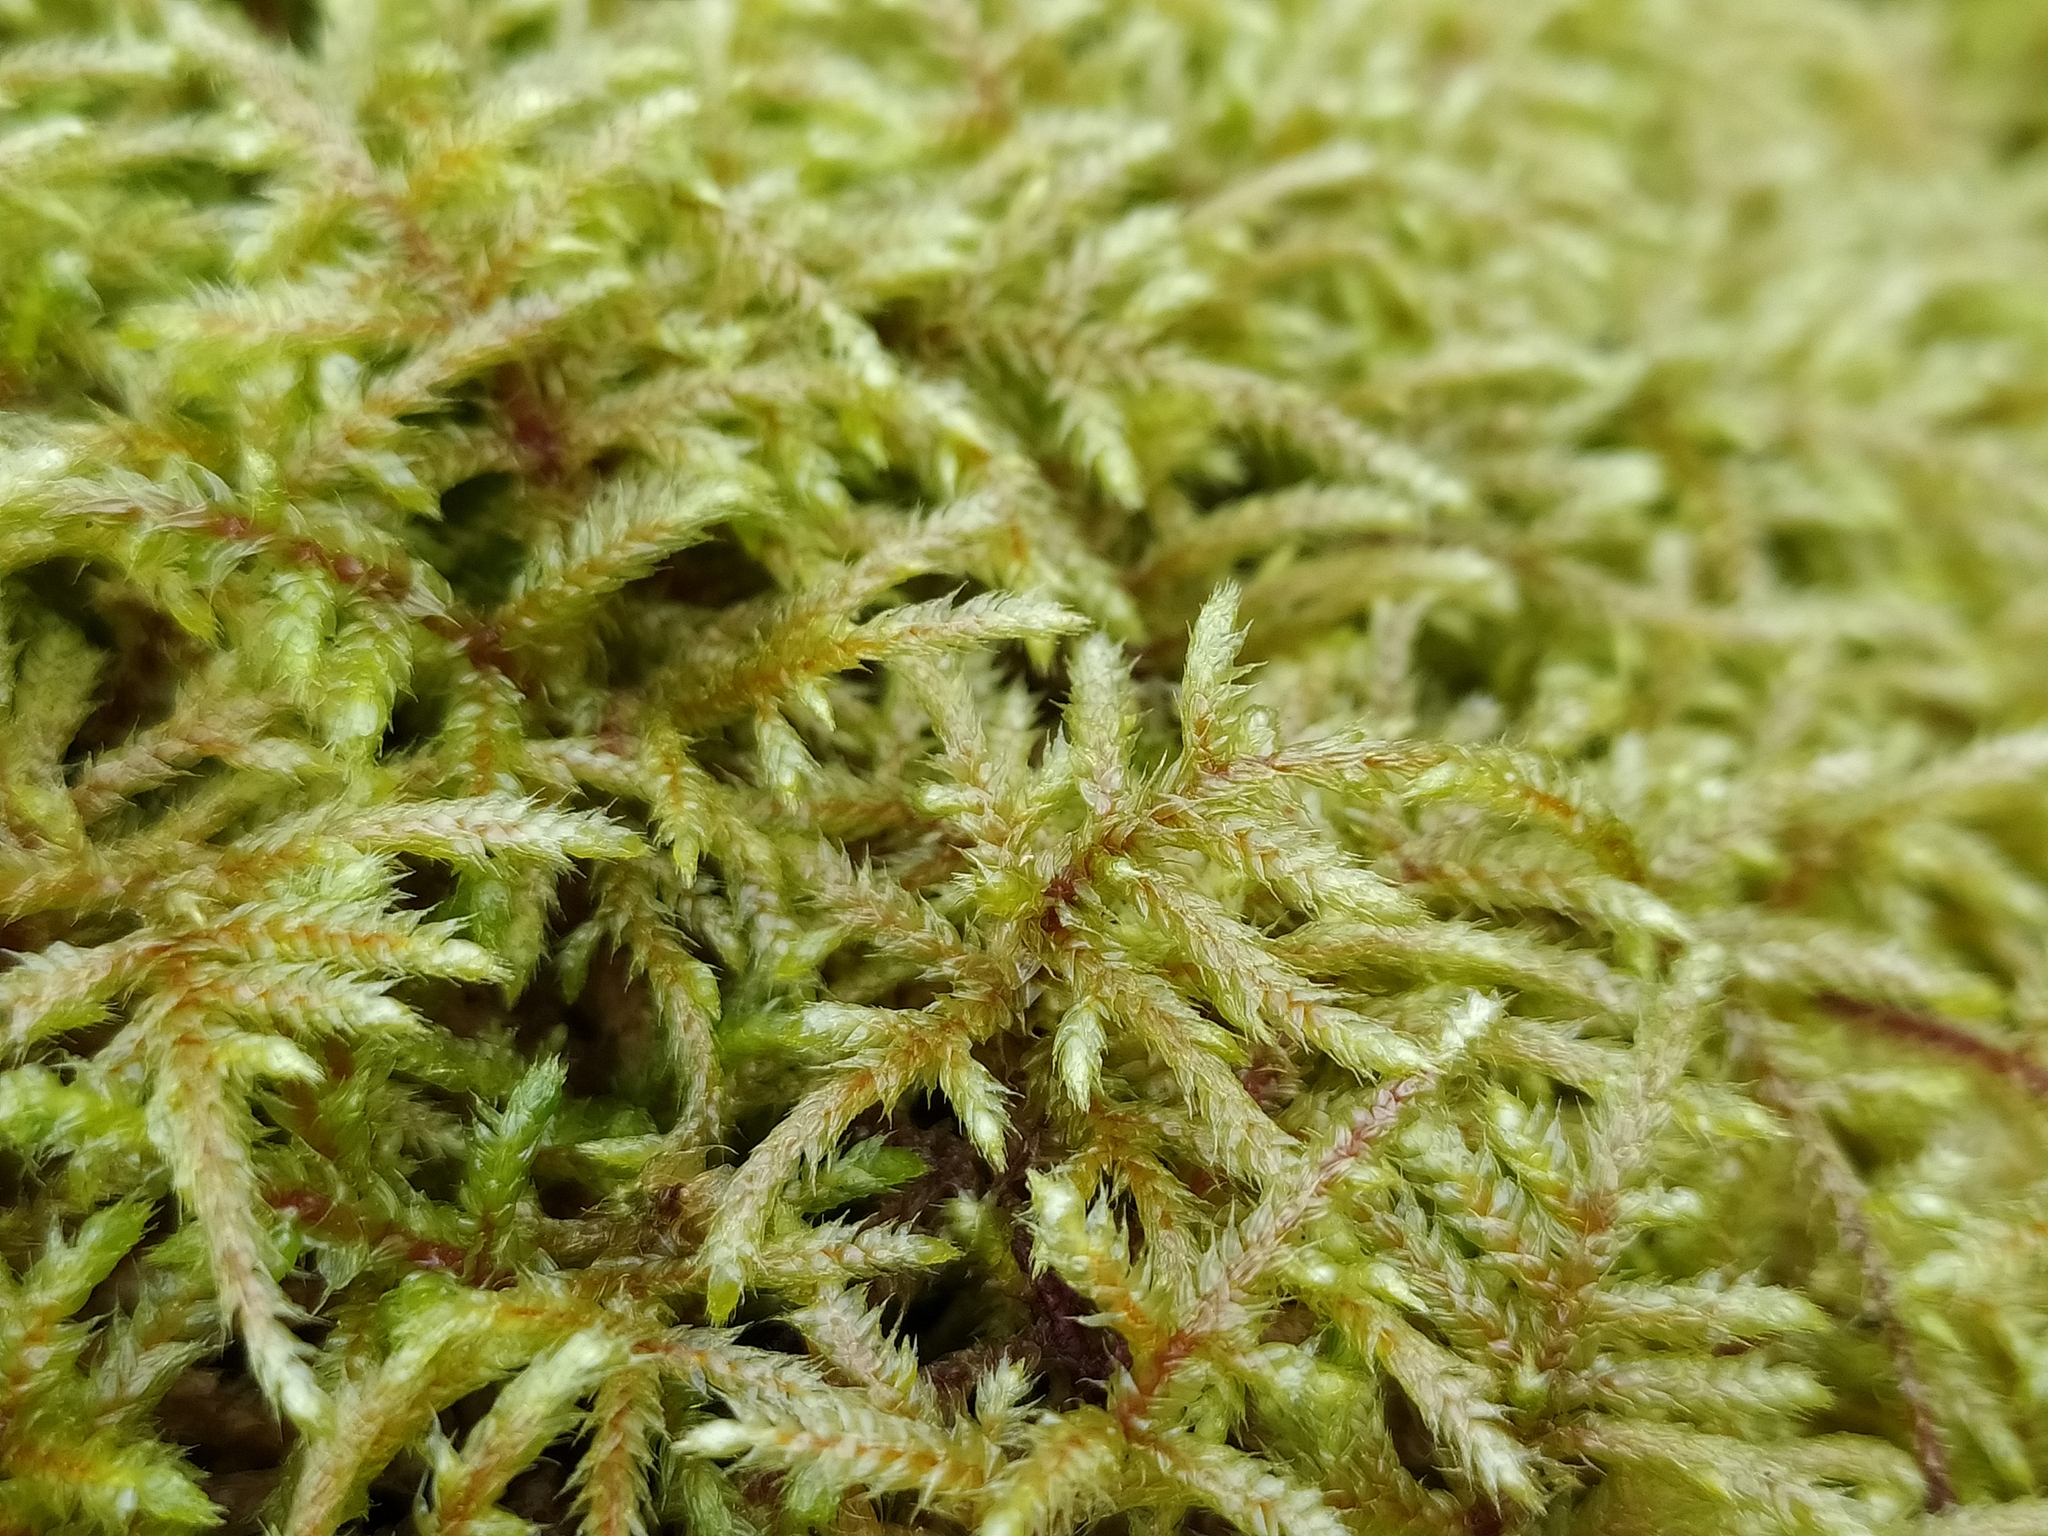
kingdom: Plantae
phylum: Bryophyta
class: Bryopsida
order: Hypnales
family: Hylocomiaceae
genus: Loeskeobryum
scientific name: Loeskeobryum brevirostre
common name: Short-beaked wood-moss
